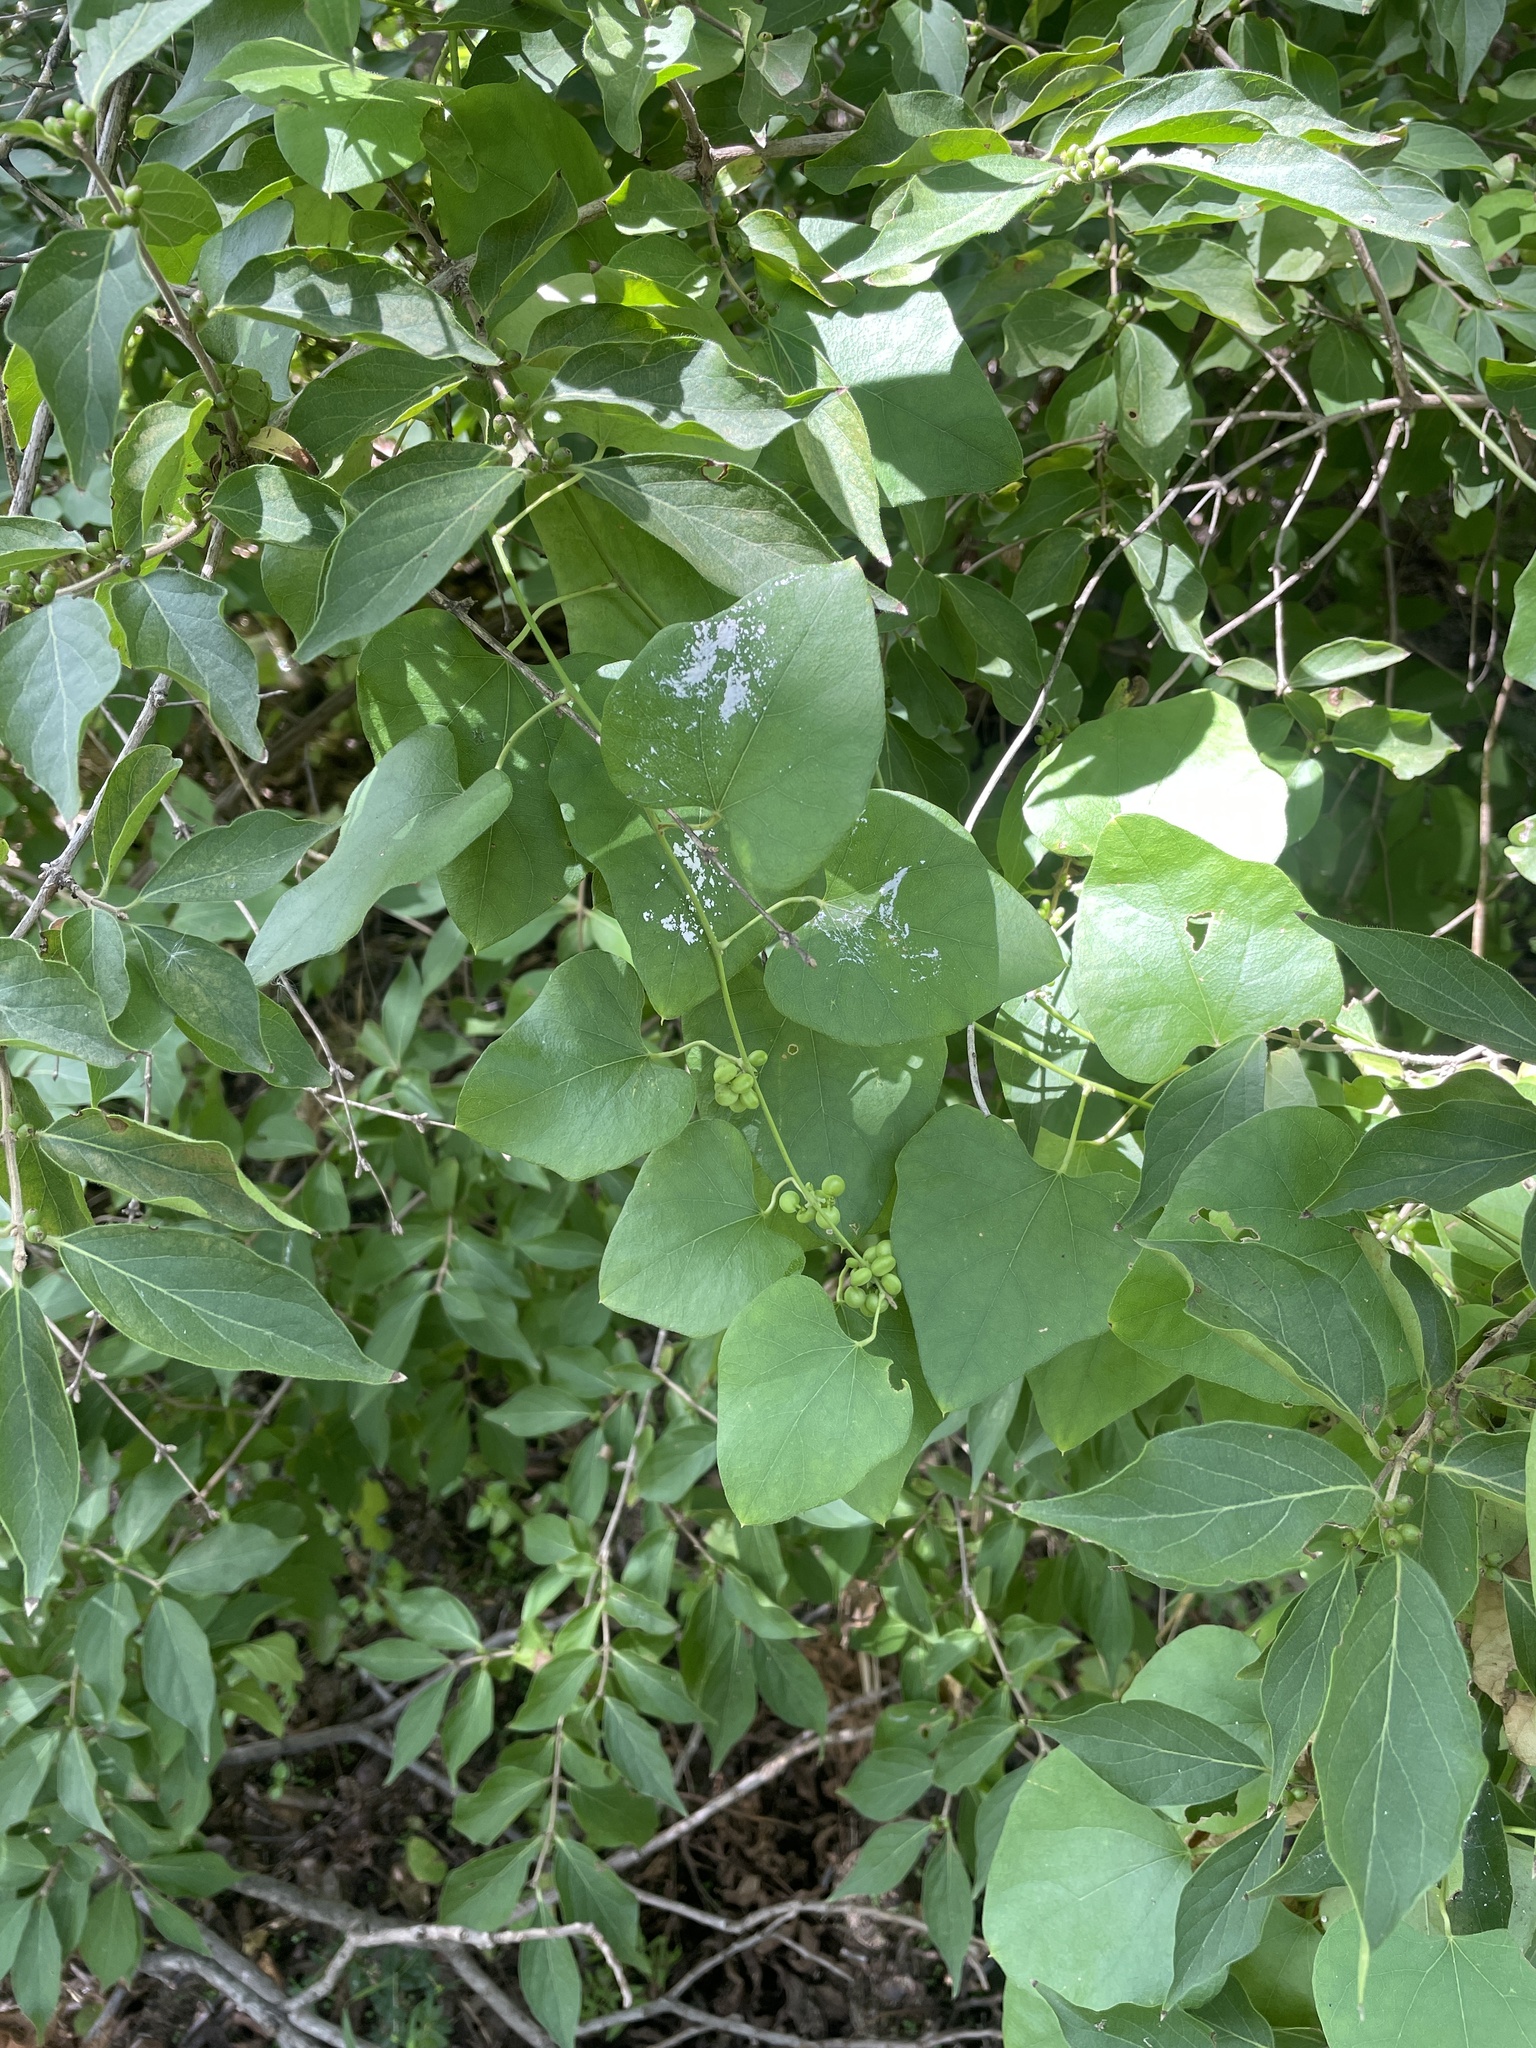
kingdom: Plantae
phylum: Tracheophyta
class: Magnoliopsida
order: Ranunculales
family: Menispermaceae
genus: Cocculus
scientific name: Cocculus carolinus
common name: Carolina moonseed
